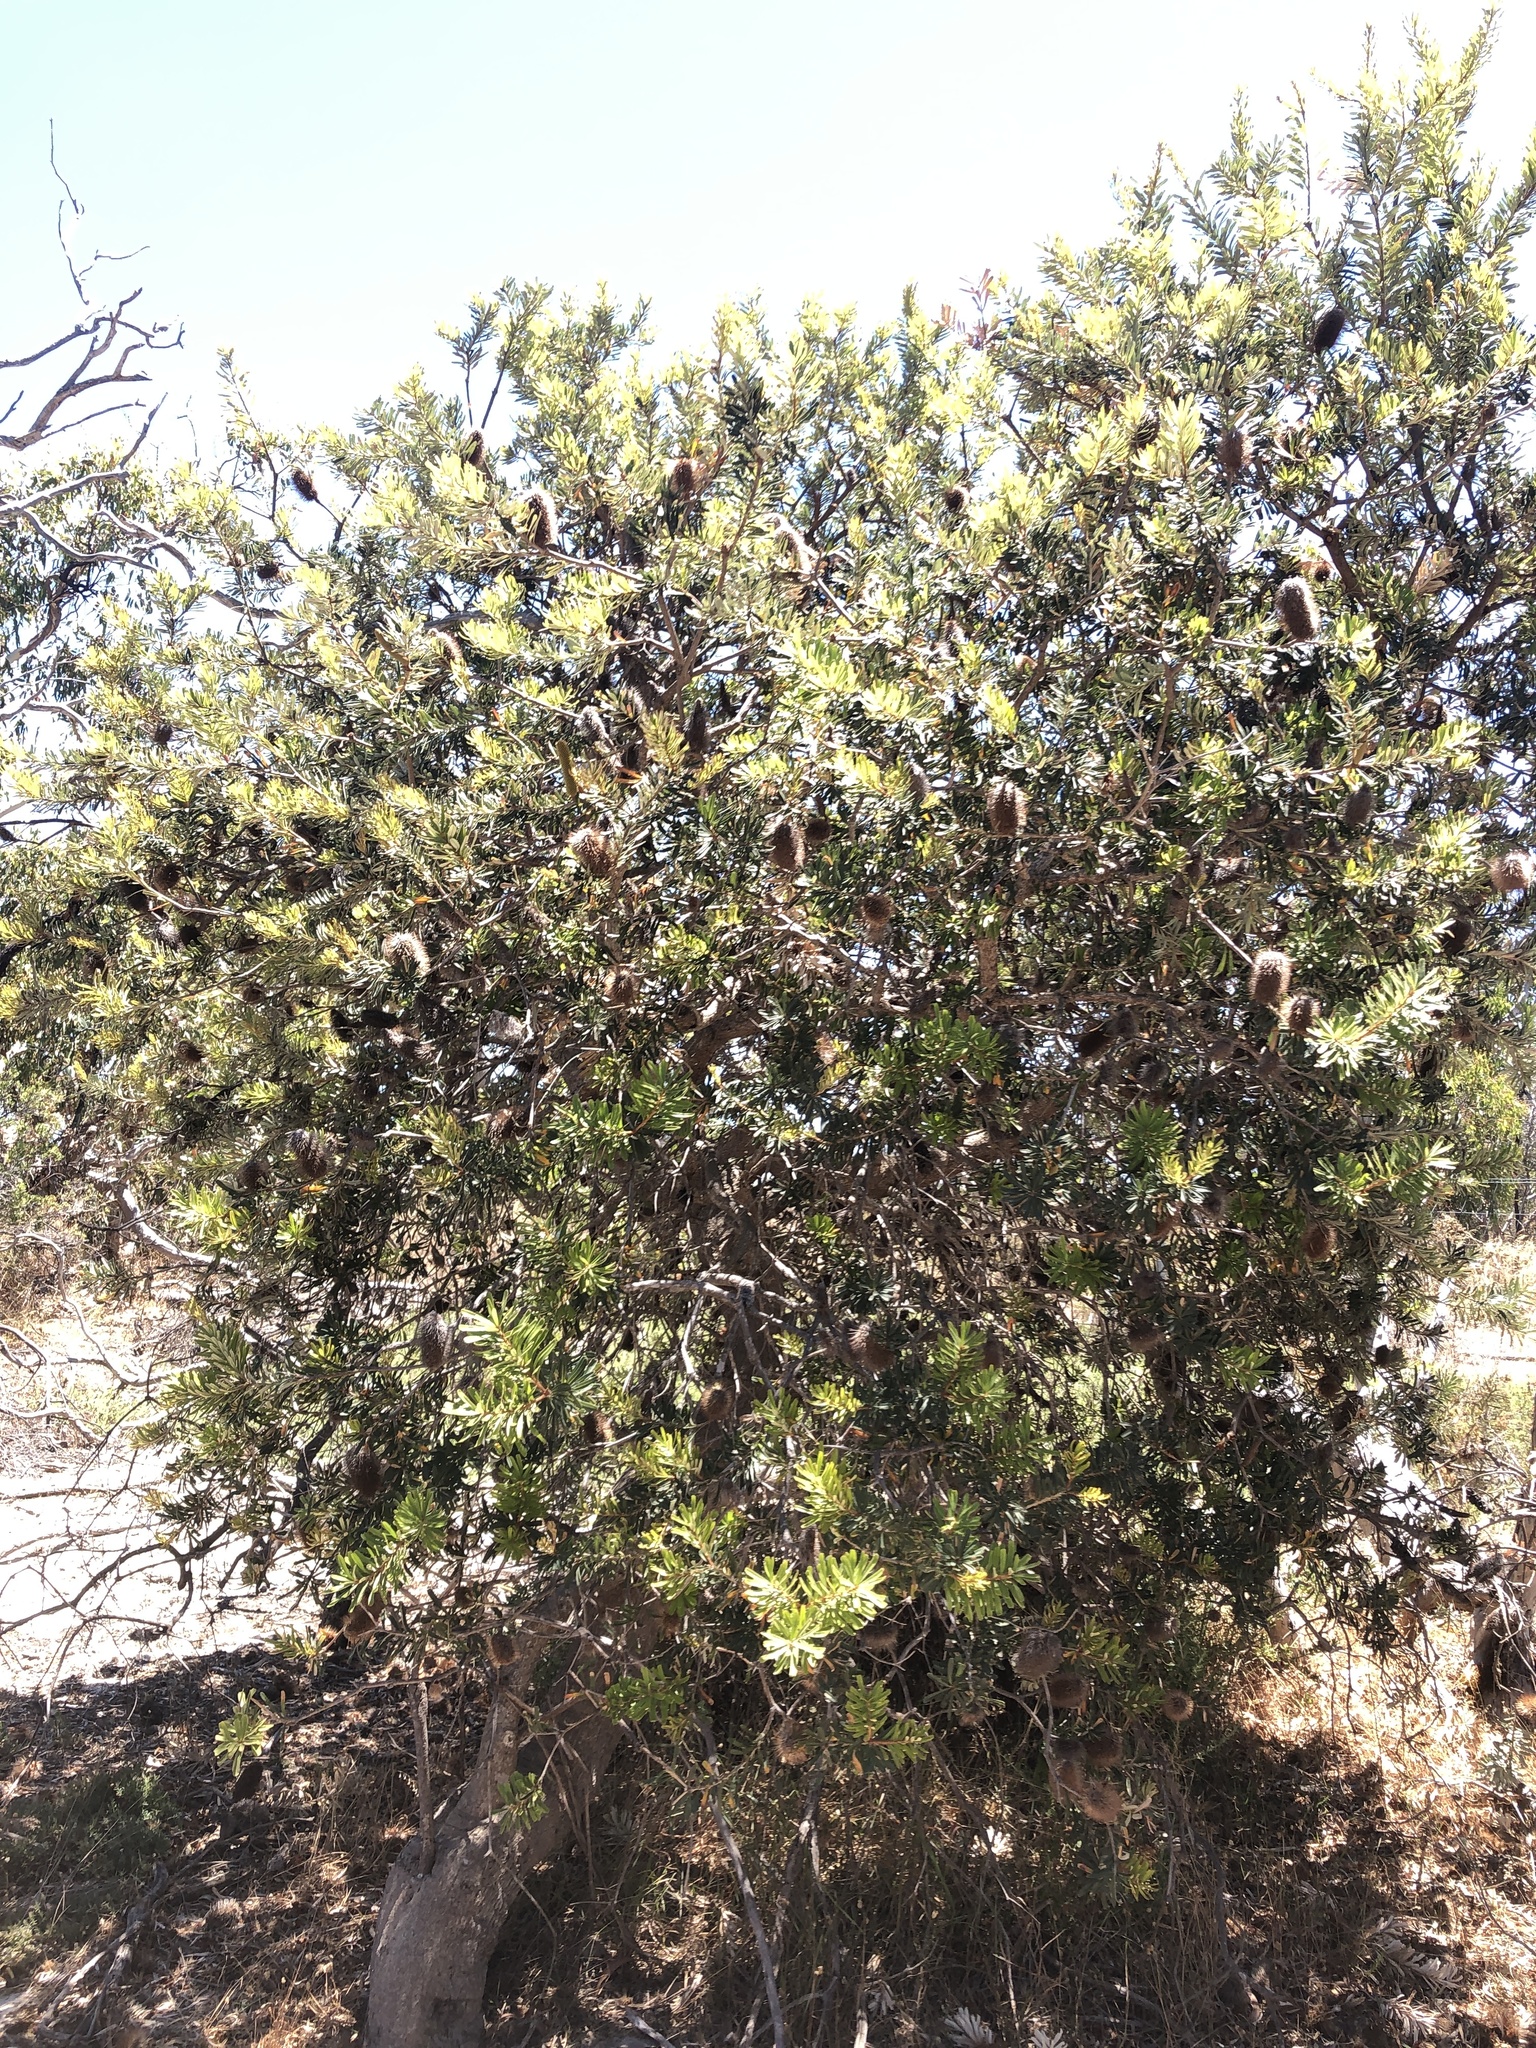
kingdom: Plantae
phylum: Tracheophyta
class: Magnoliopsida
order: Proteales
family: Proteaceae
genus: Banksia
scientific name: Banksia marginata
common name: Silver banksia
